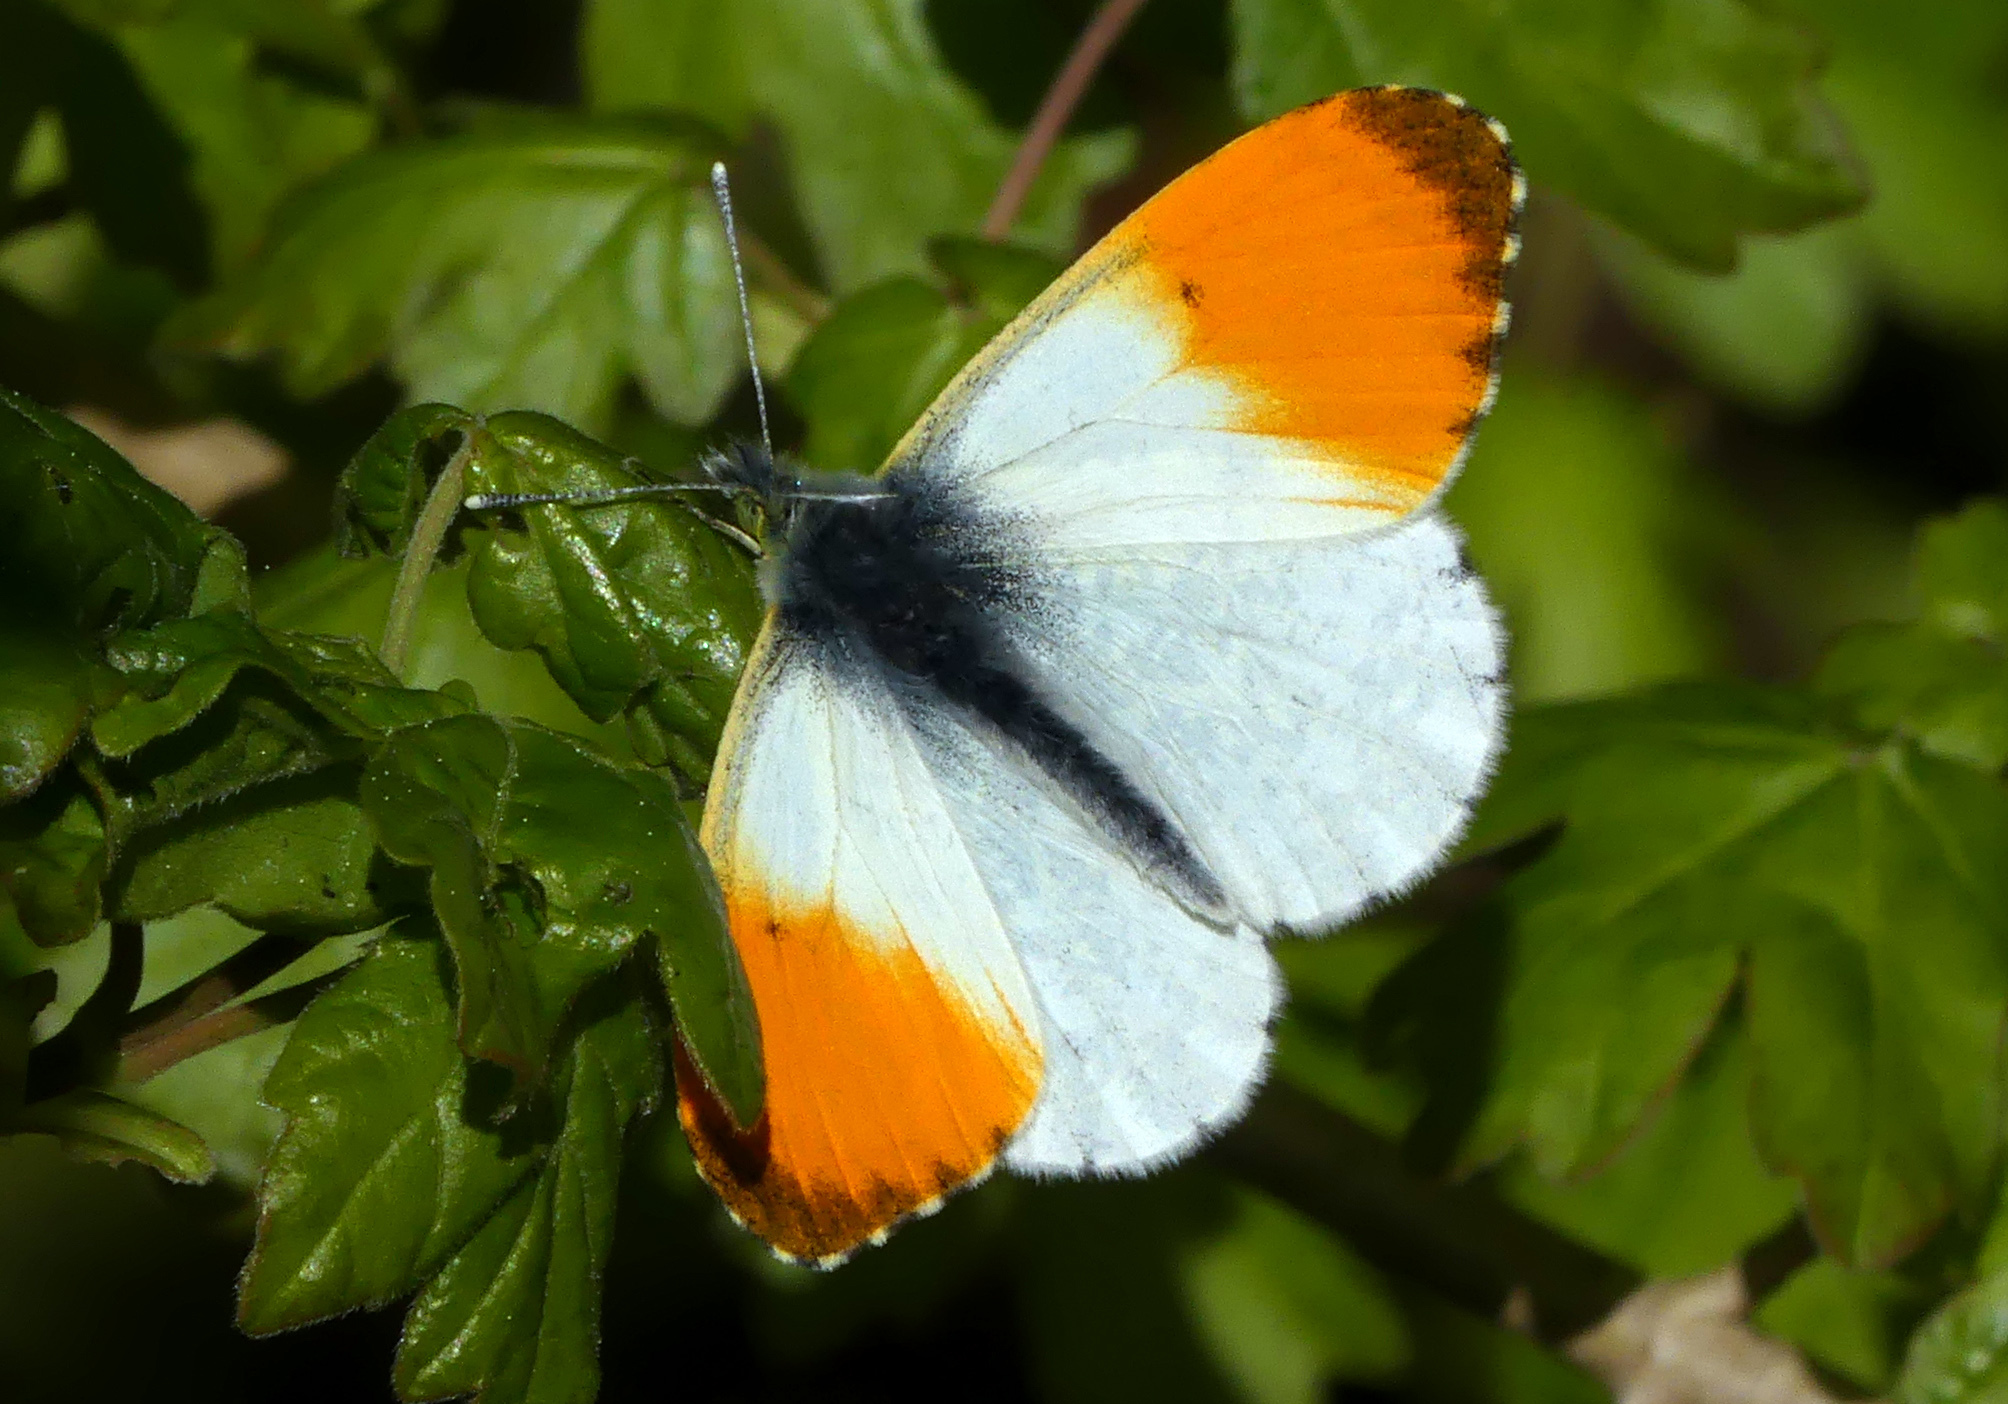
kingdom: Animalia
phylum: Arthropoda
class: Insecta
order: Lepidoptera
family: Pieridae
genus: Anthocharis
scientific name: Anthocharis cardamines
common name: Orange-tip
